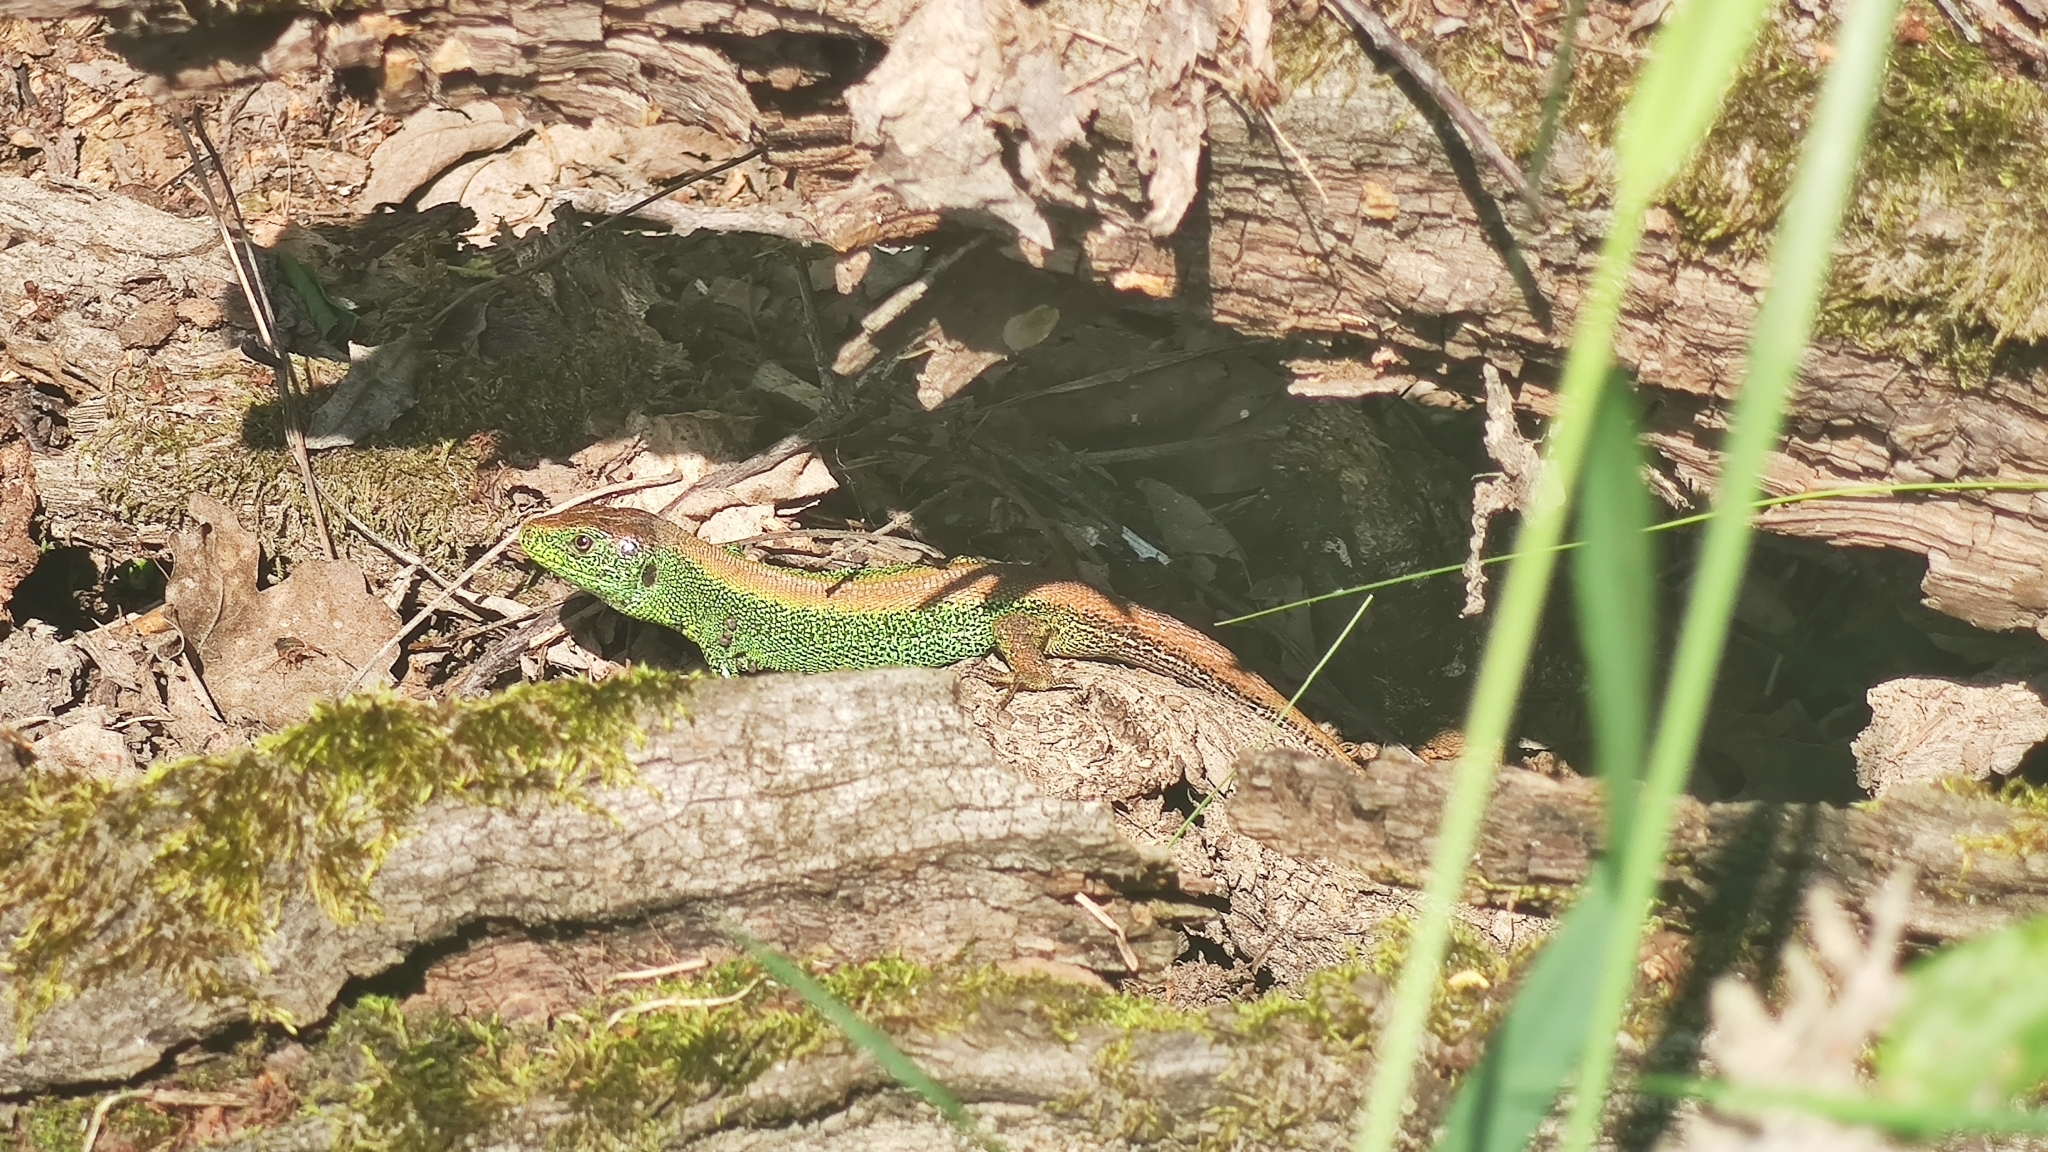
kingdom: Animalia
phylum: Chordata
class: Squamata
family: Lacertidae
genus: Lacerta
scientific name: Lacerta agilis
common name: Sand lizard
